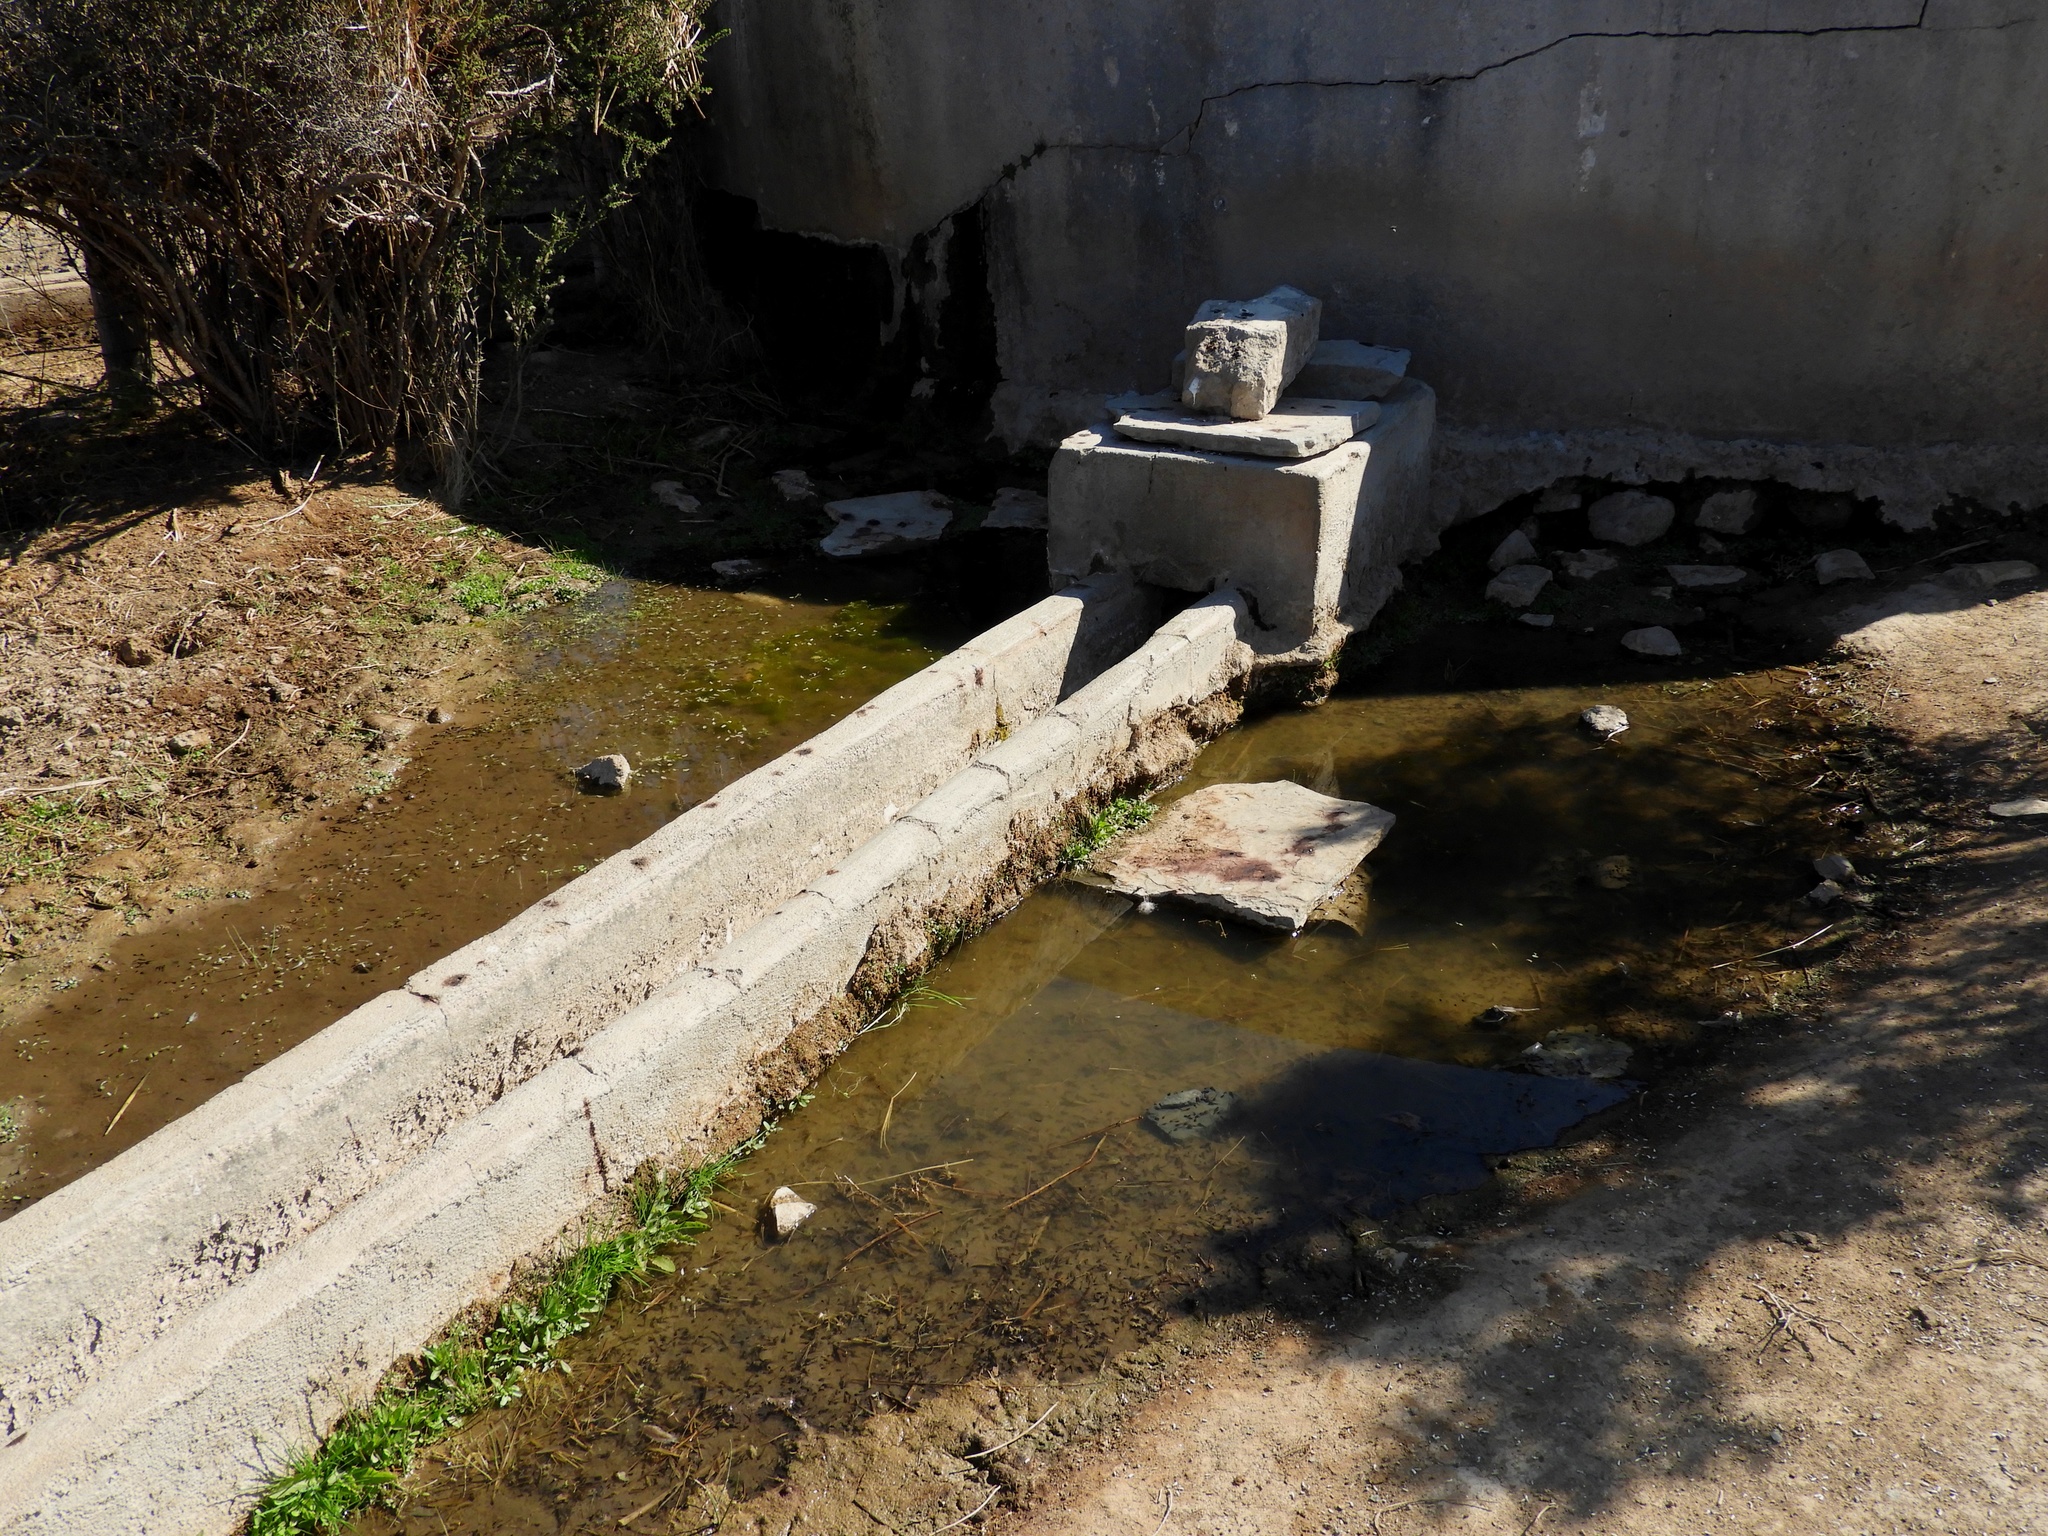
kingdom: Animalia
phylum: Chordata
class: Amphibia
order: Anura
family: Bufonidae
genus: Vandijkophrynus
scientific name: Vandijkophrynus gariepensis
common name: Gariep toad
